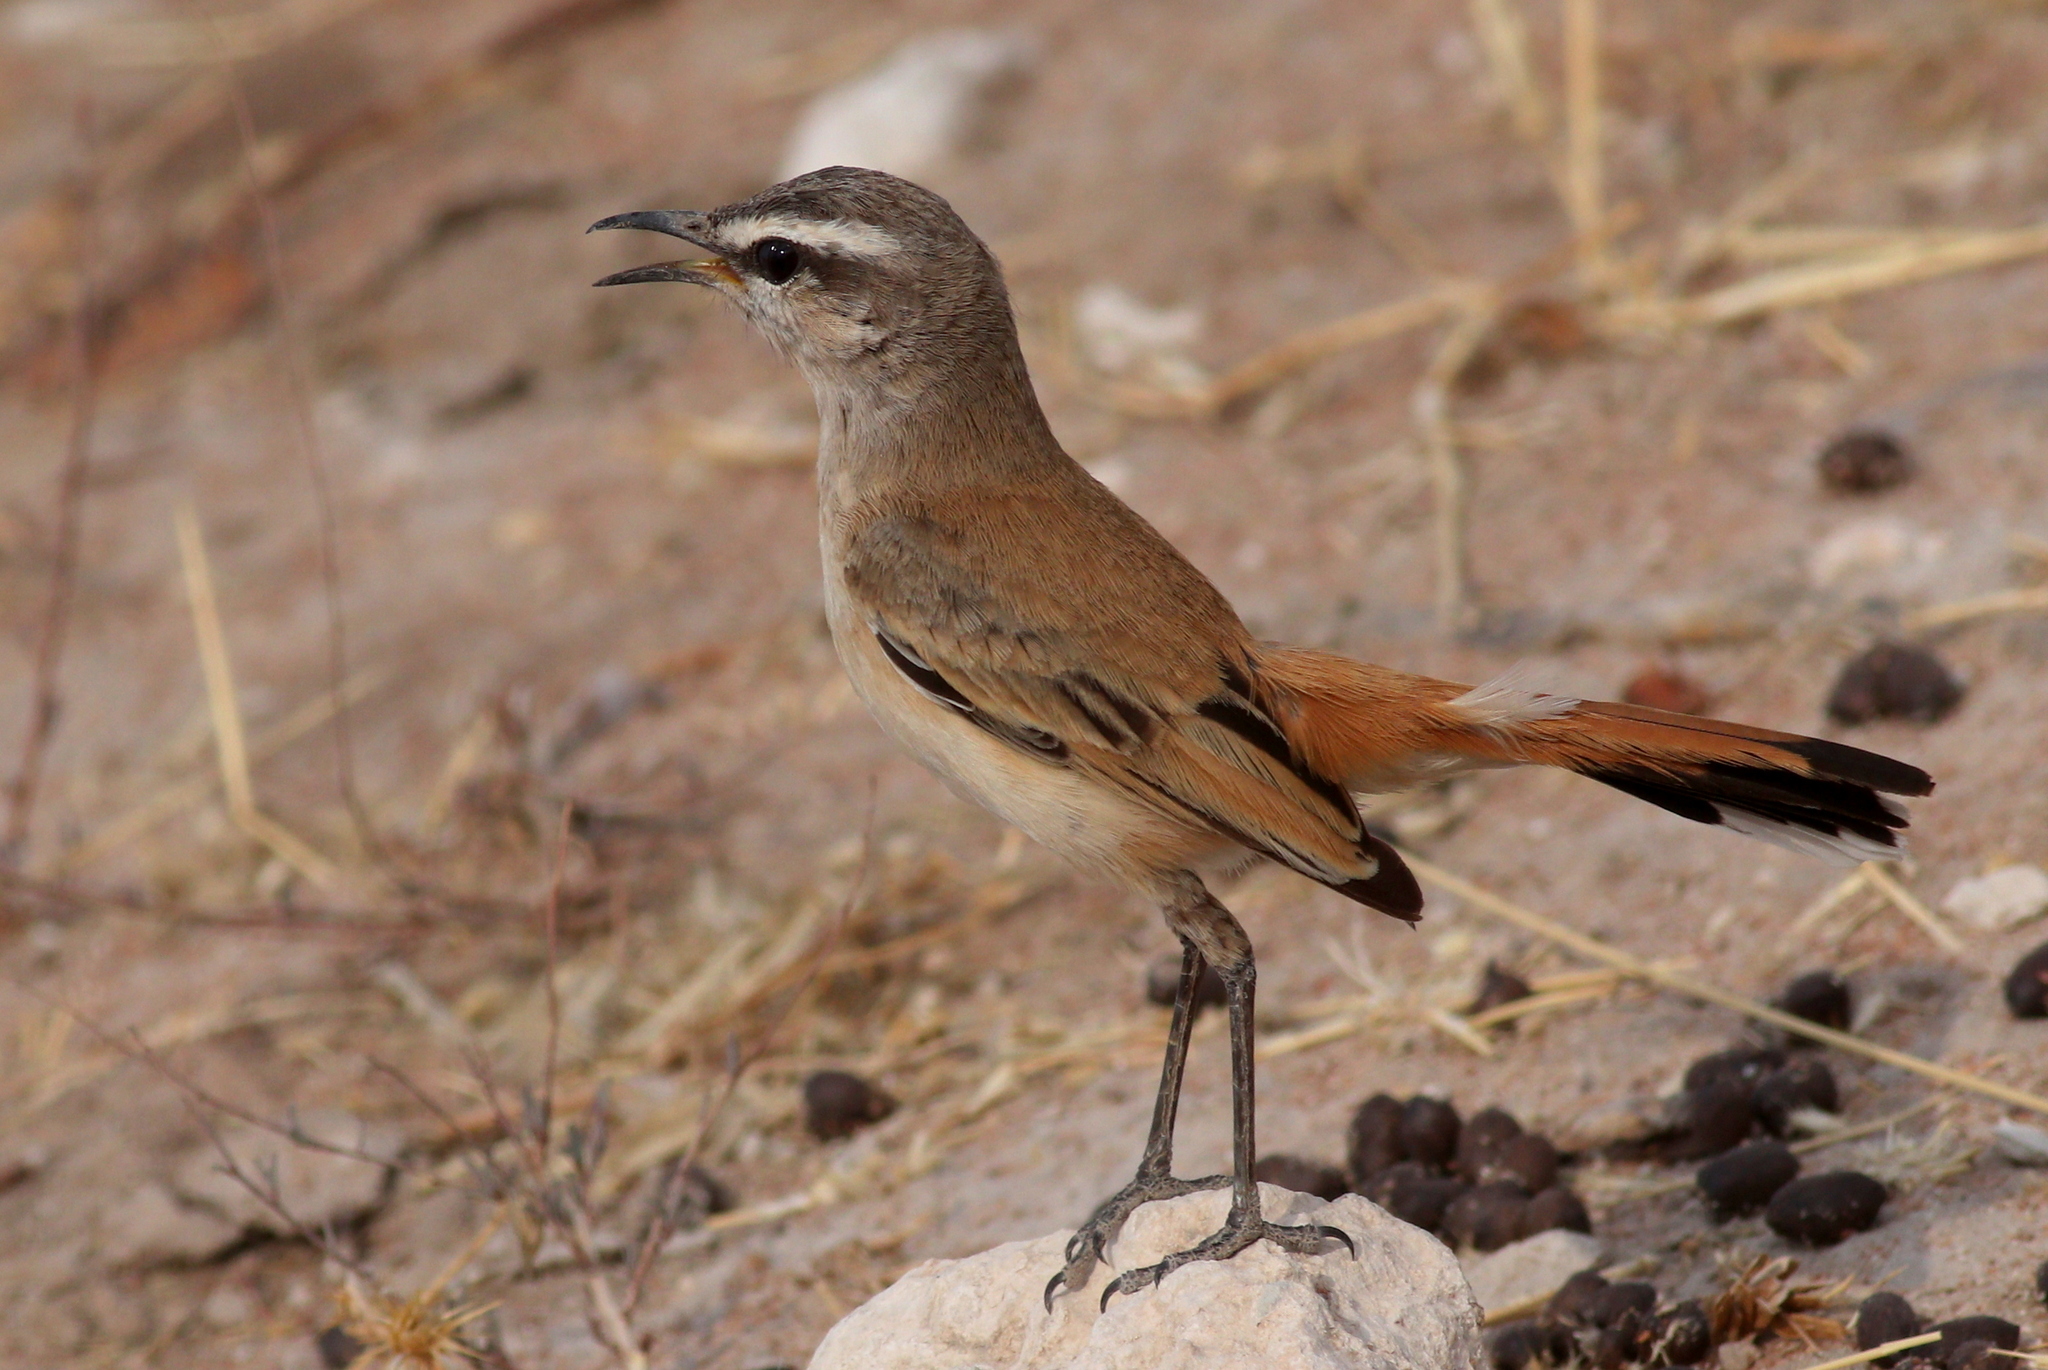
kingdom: Animalia
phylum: Chordata
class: Aves
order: Passeriformes
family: Muscicapidae
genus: Erythropygia
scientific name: Erythropygia paena
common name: Kalahari scrub robin
